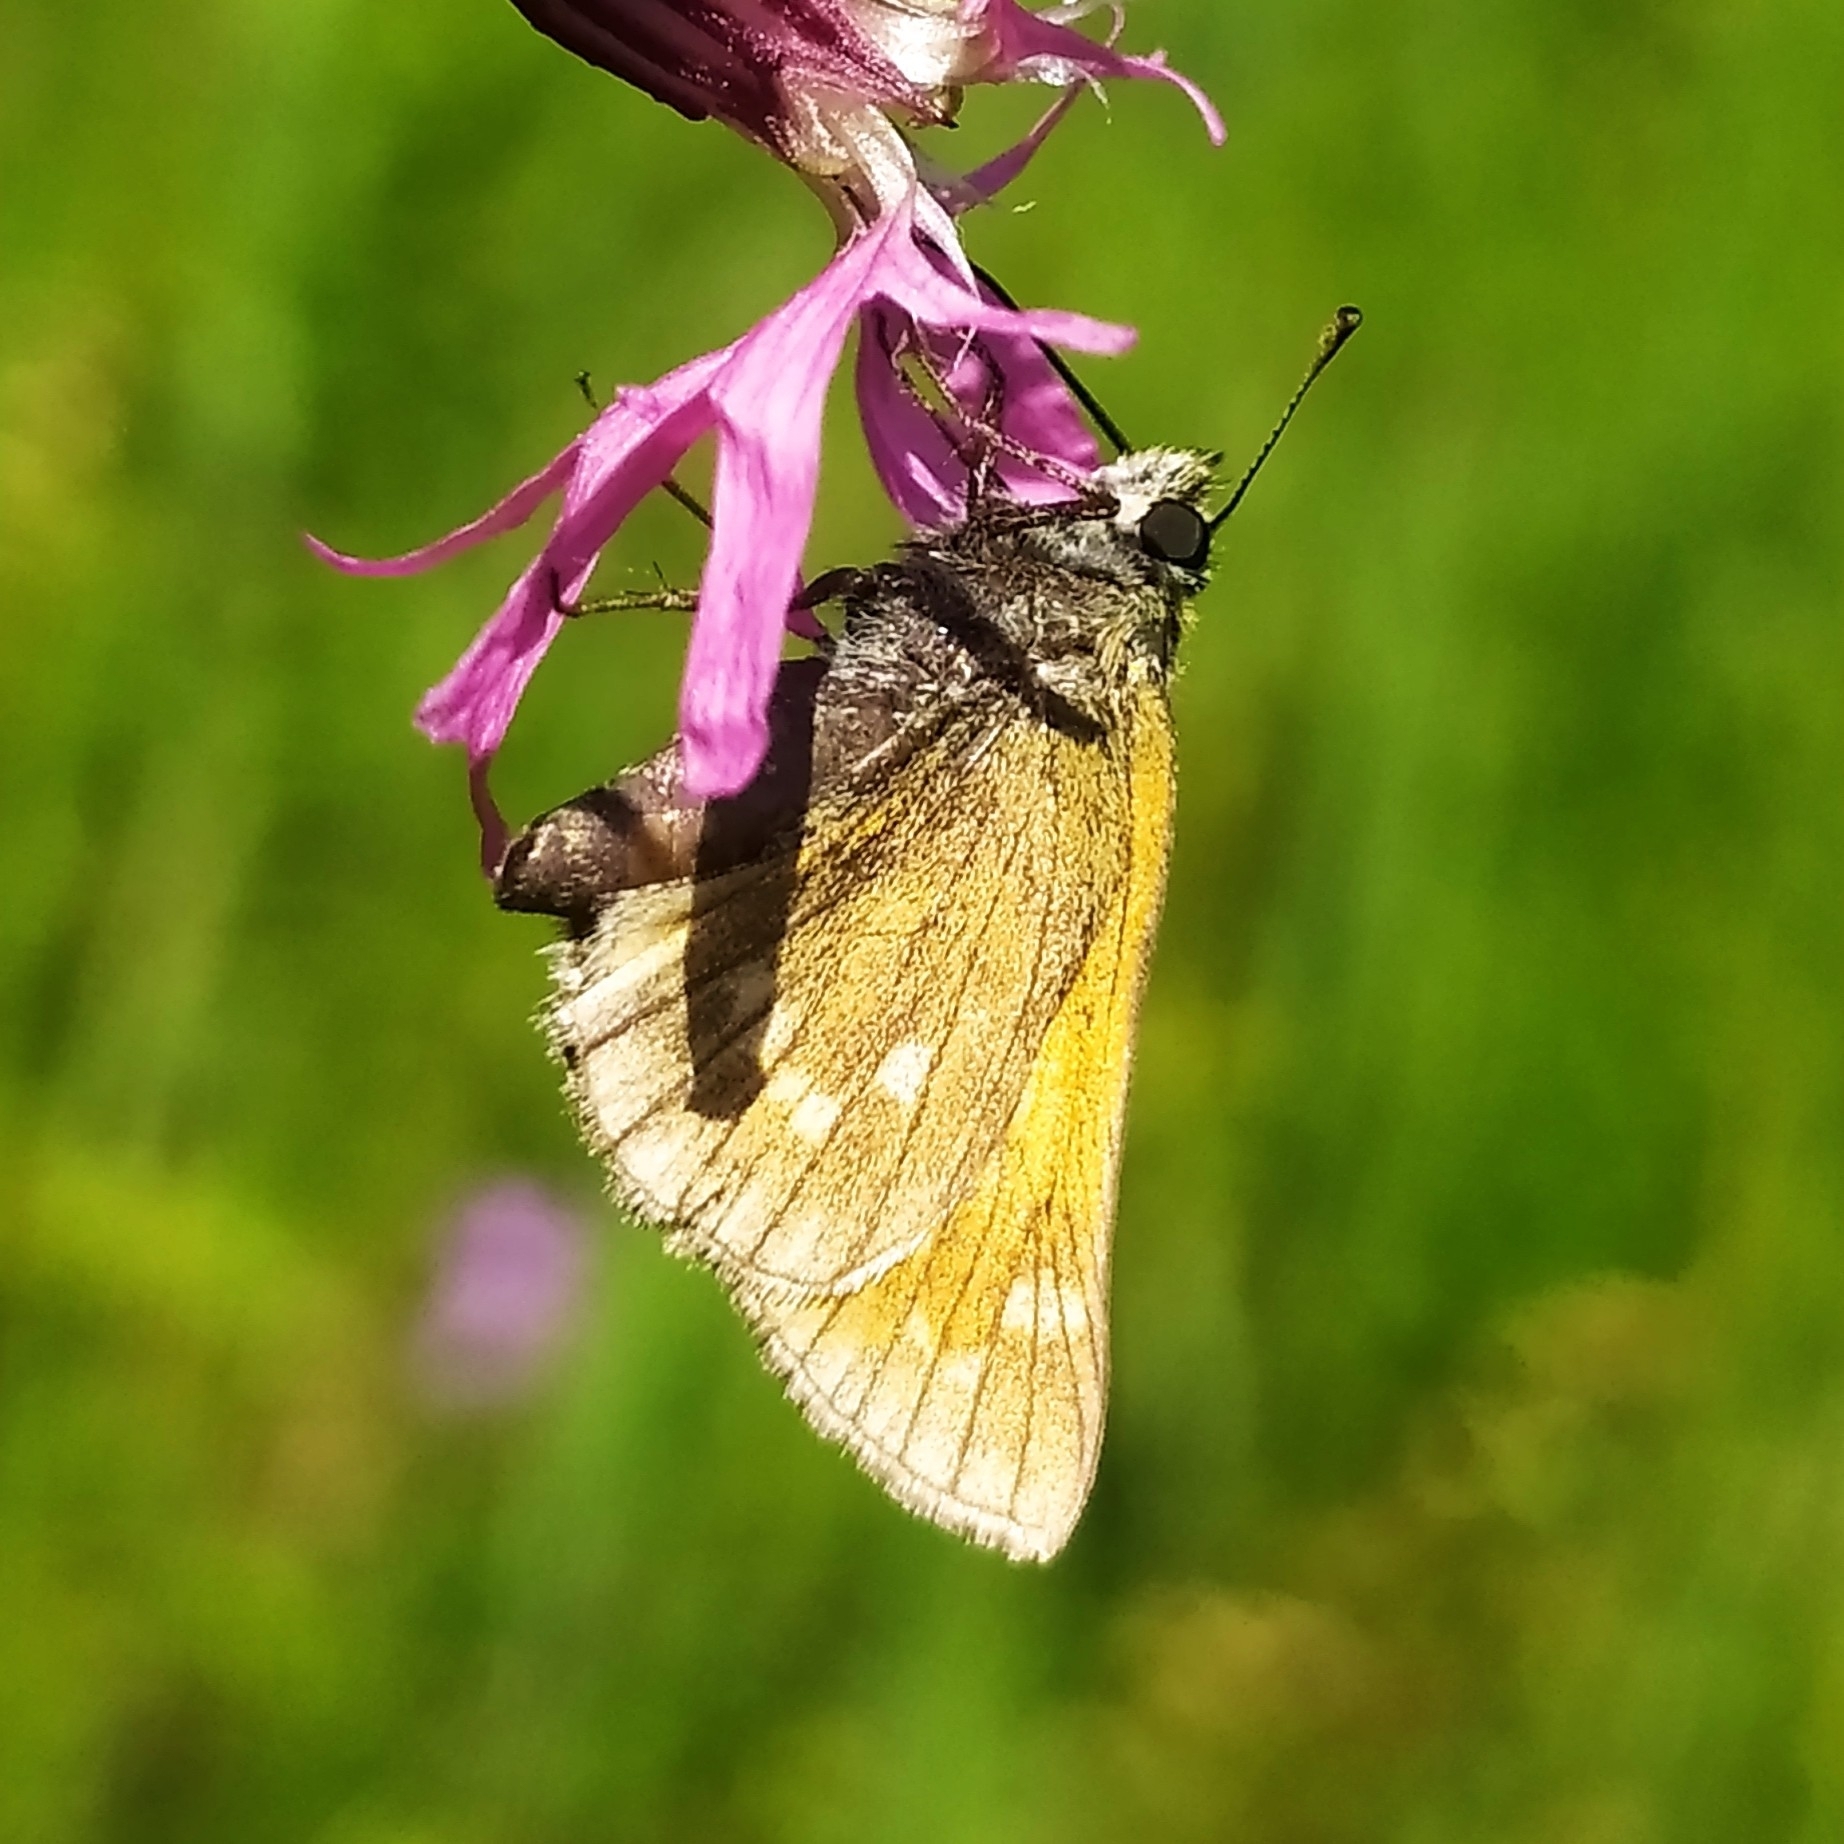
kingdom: Animalia
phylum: Arthropoda
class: Insecta
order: Lepidoptera
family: Hesperiidae
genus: Ochlodes
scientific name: Ochlodes venata
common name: Large skipper
